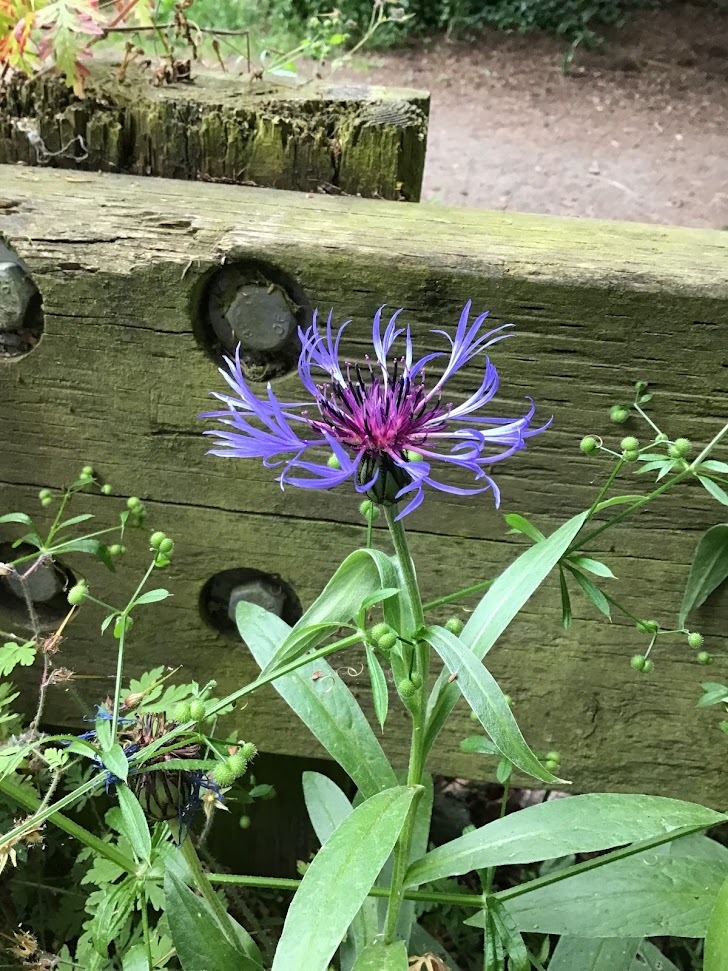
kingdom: Plantae
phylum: Tracheophyta
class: Magnoliopsida
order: Asterales
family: Asteraceae
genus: Centaurea
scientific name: Centaurea montana
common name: Perennial cornflower
